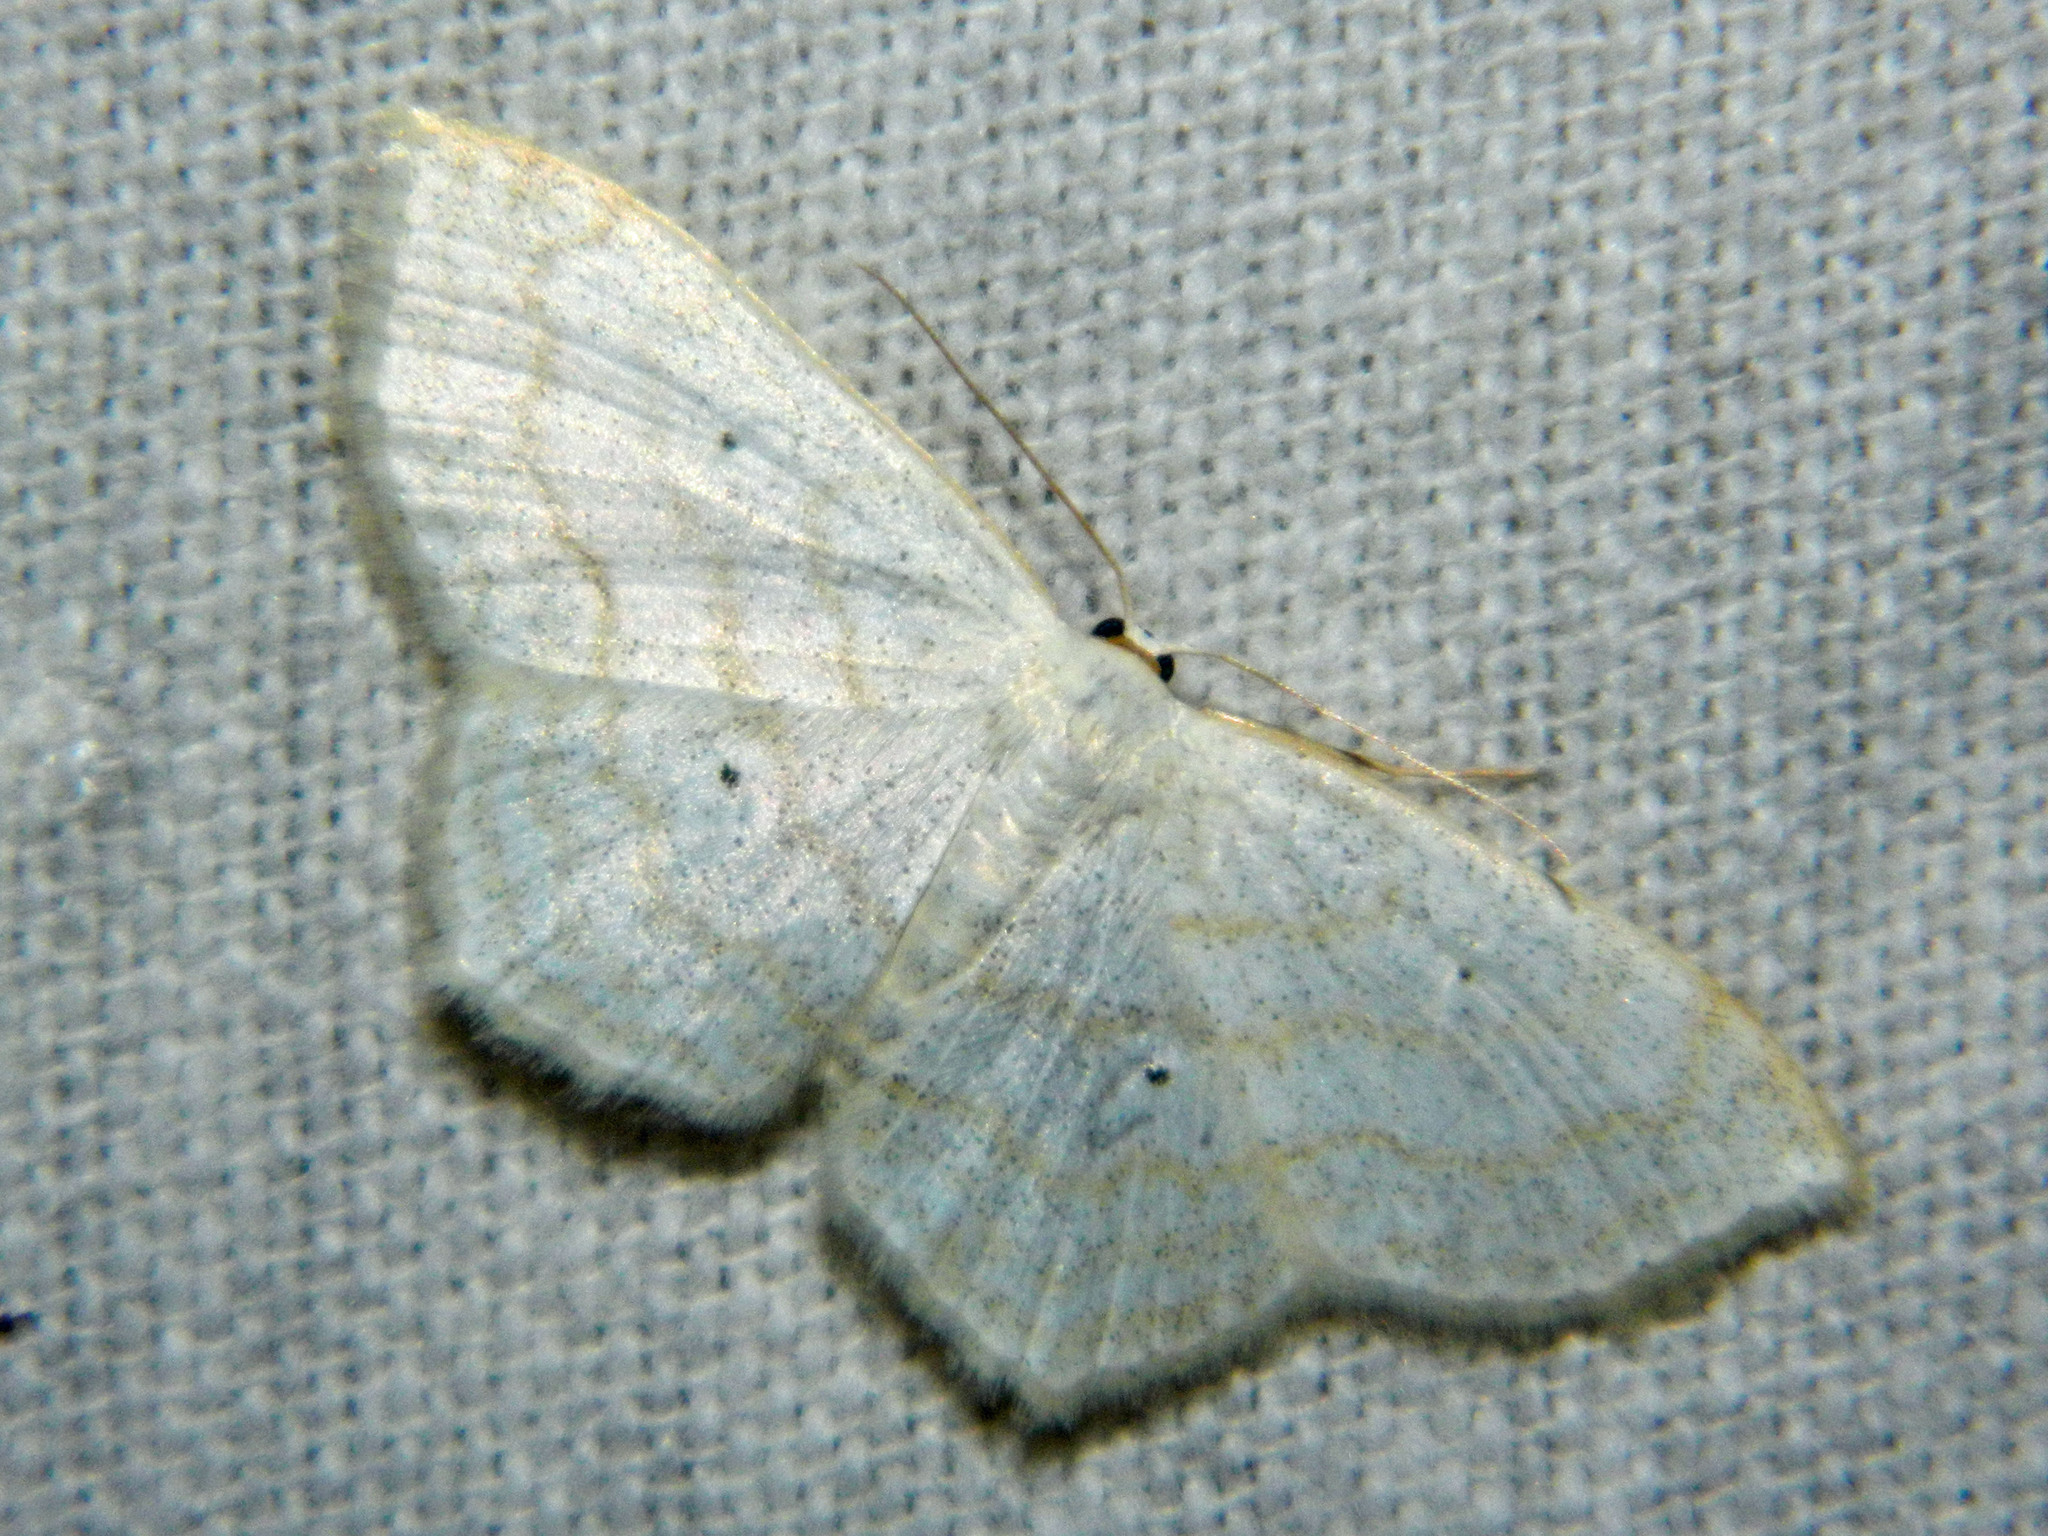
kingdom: Animalia
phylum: Arthropoda
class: Insecta
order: Lepidoptera
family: Geometridae
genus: Scopula
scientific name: Scopula limboundata
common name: Large lace border
